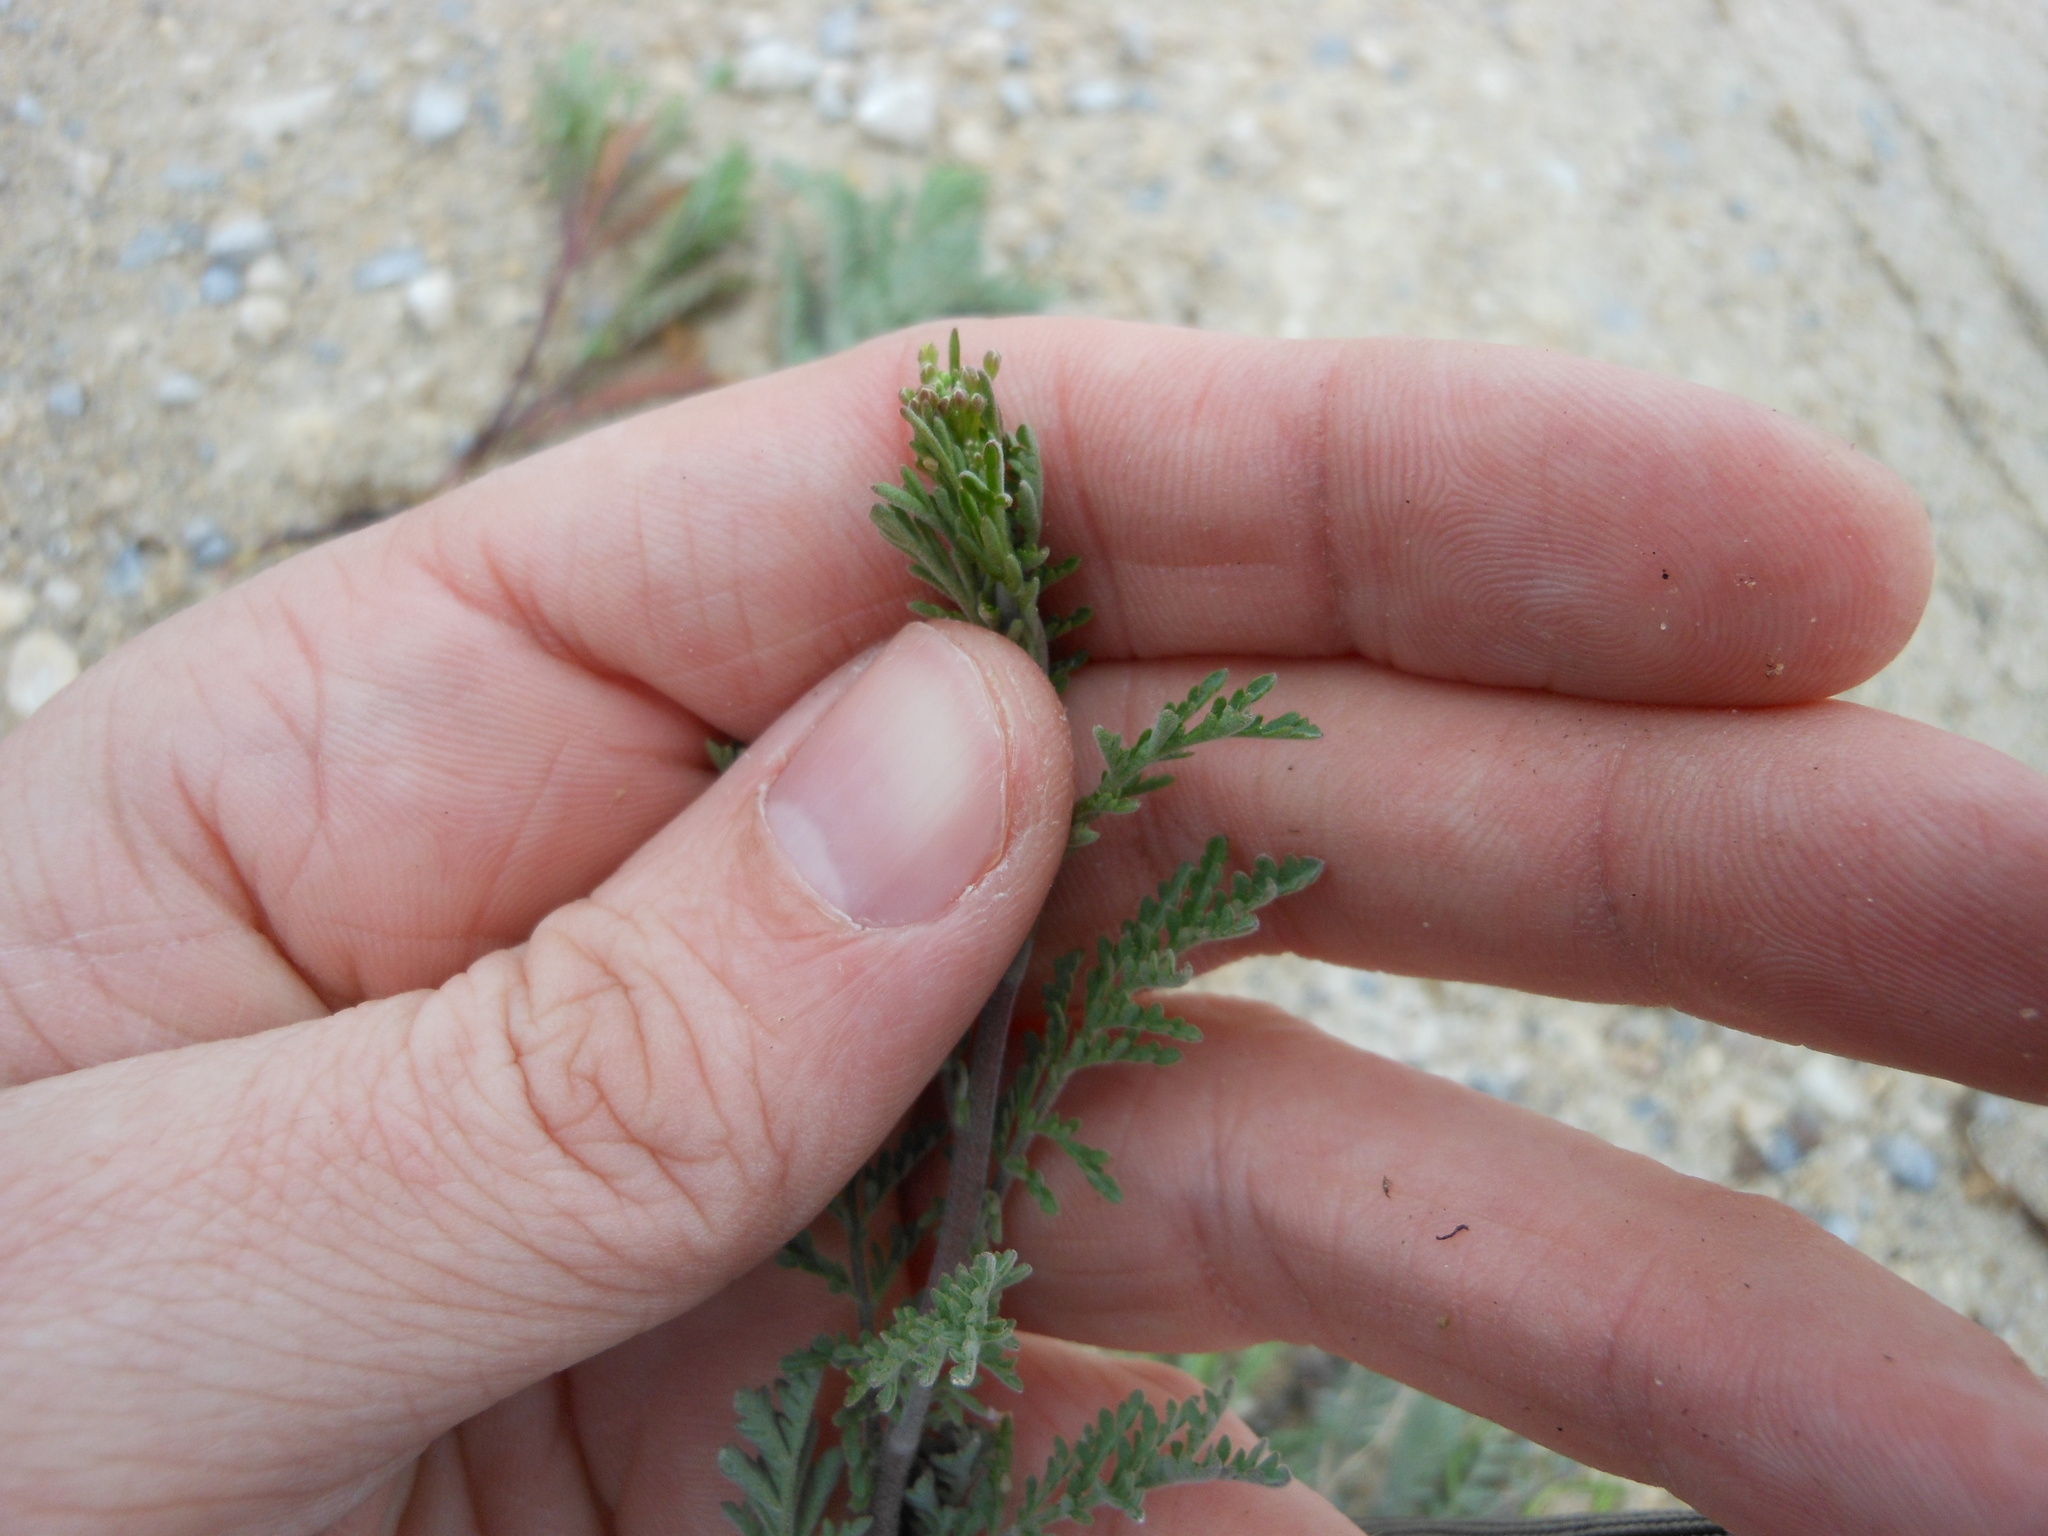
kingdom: Plantae
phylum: Tracheophyta
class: Magnoliopsida
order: Brassicales
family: Brassicaceae
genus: Descurainia
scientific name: Descurainia pinnata
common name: Western tansy mustard
